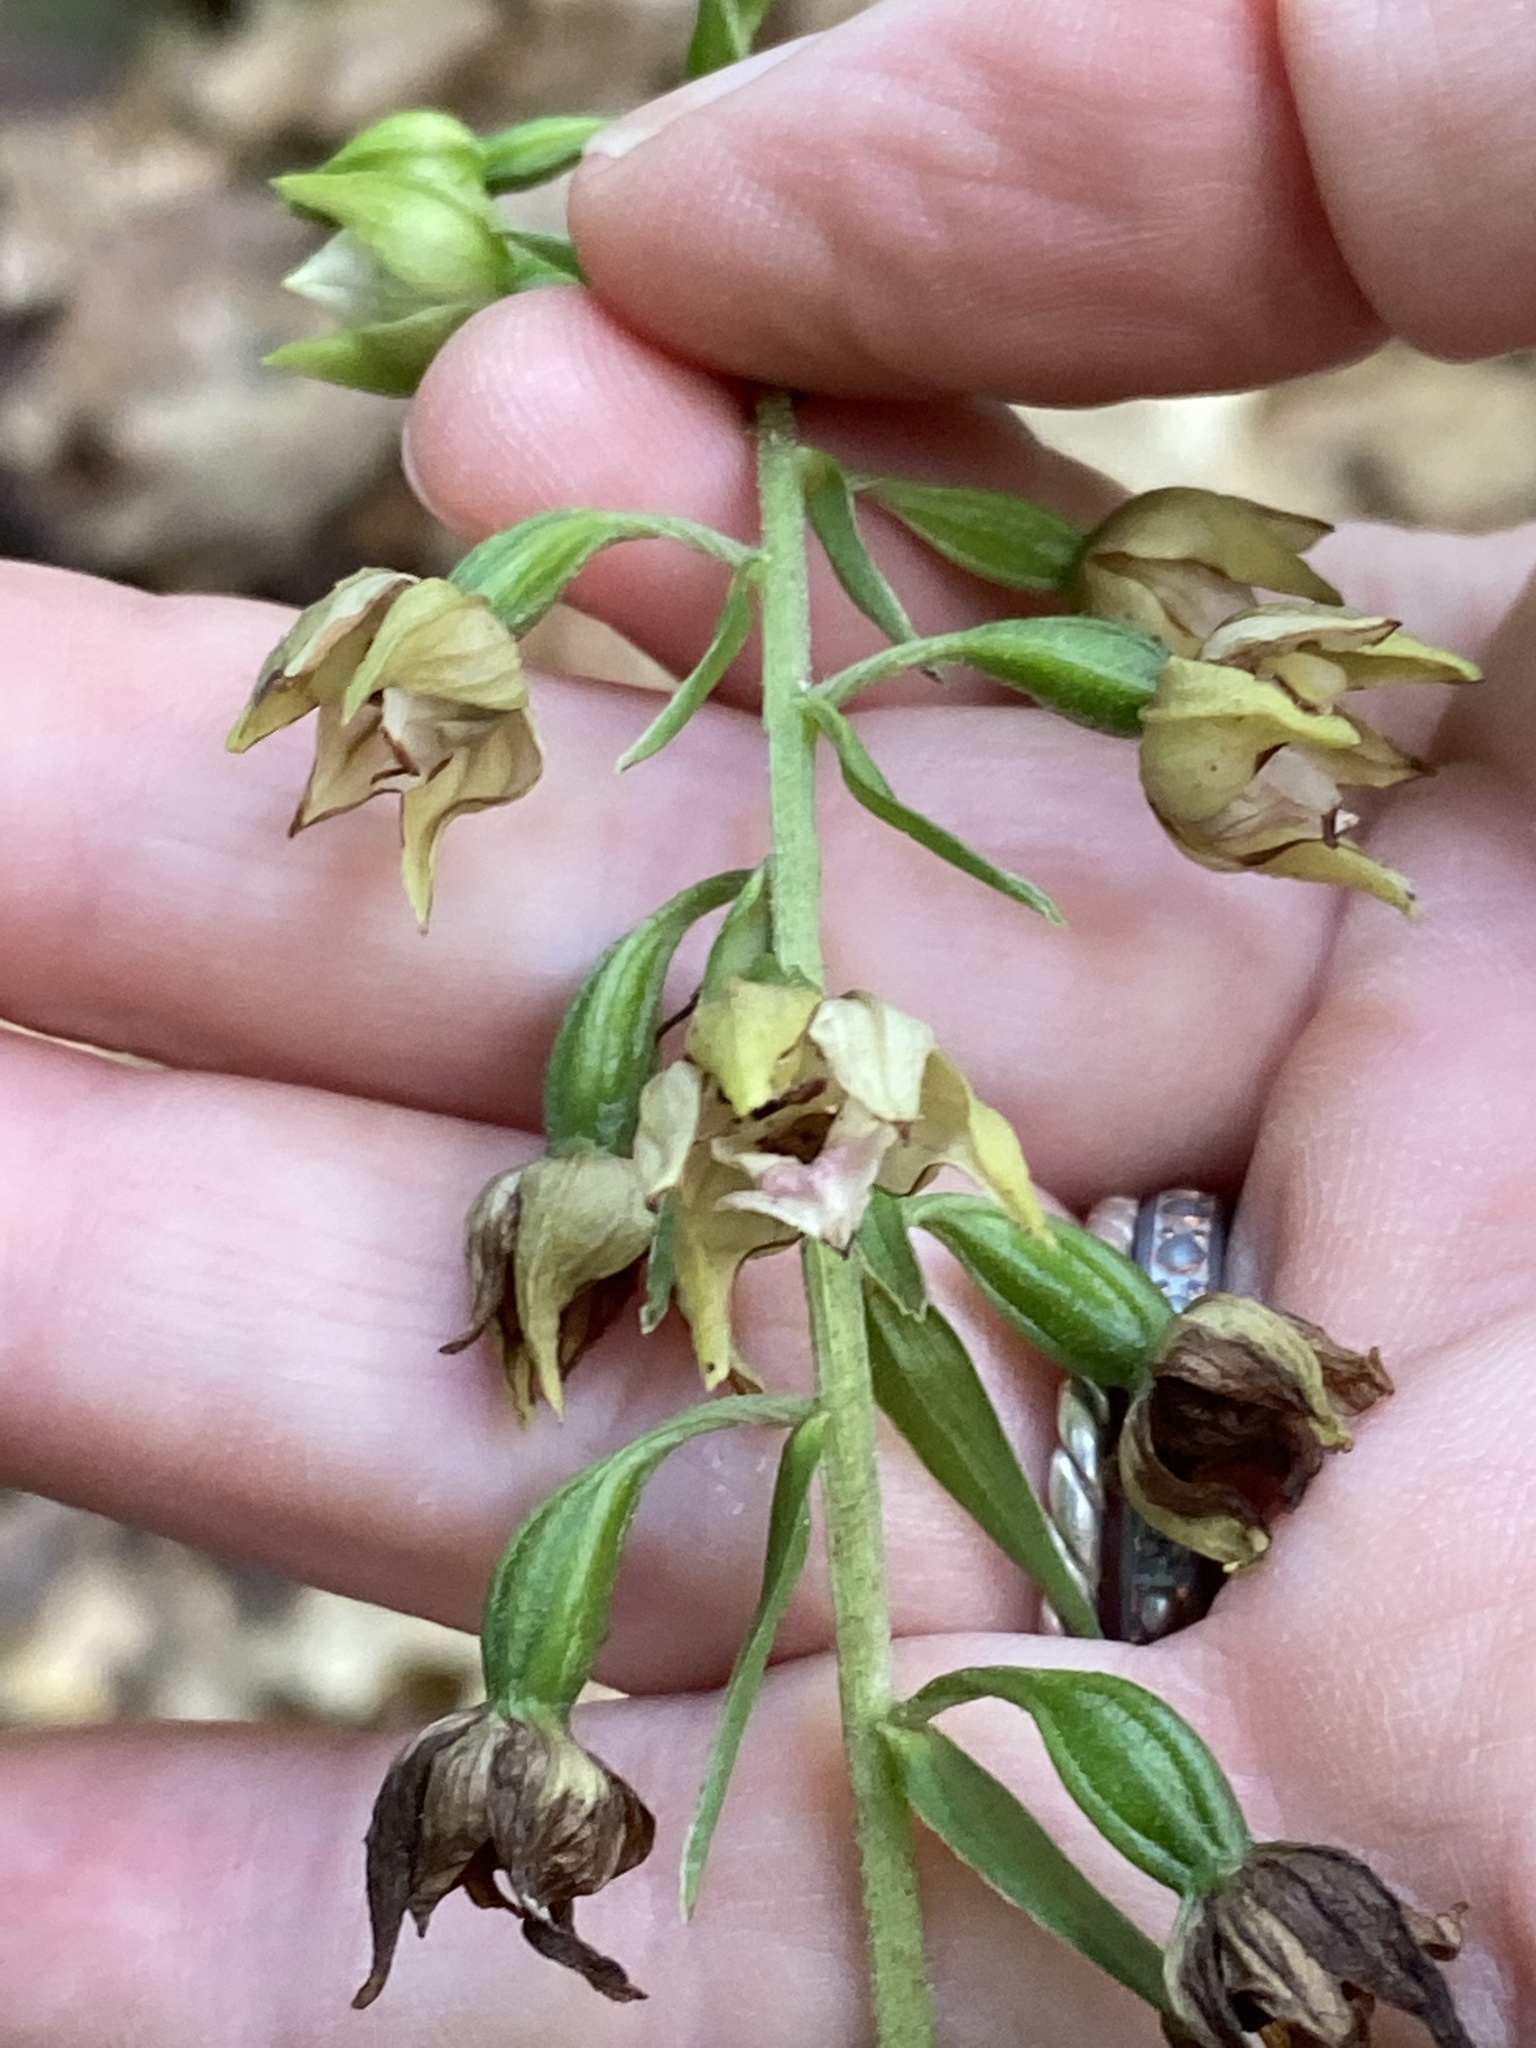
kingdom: Plantae
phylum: Tracheophyta
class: Liliopsida
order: Asparagales
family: Orchidaceae
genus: Epipactis
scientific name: Epipactis helleborine
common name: Broad-leaved helleborine
